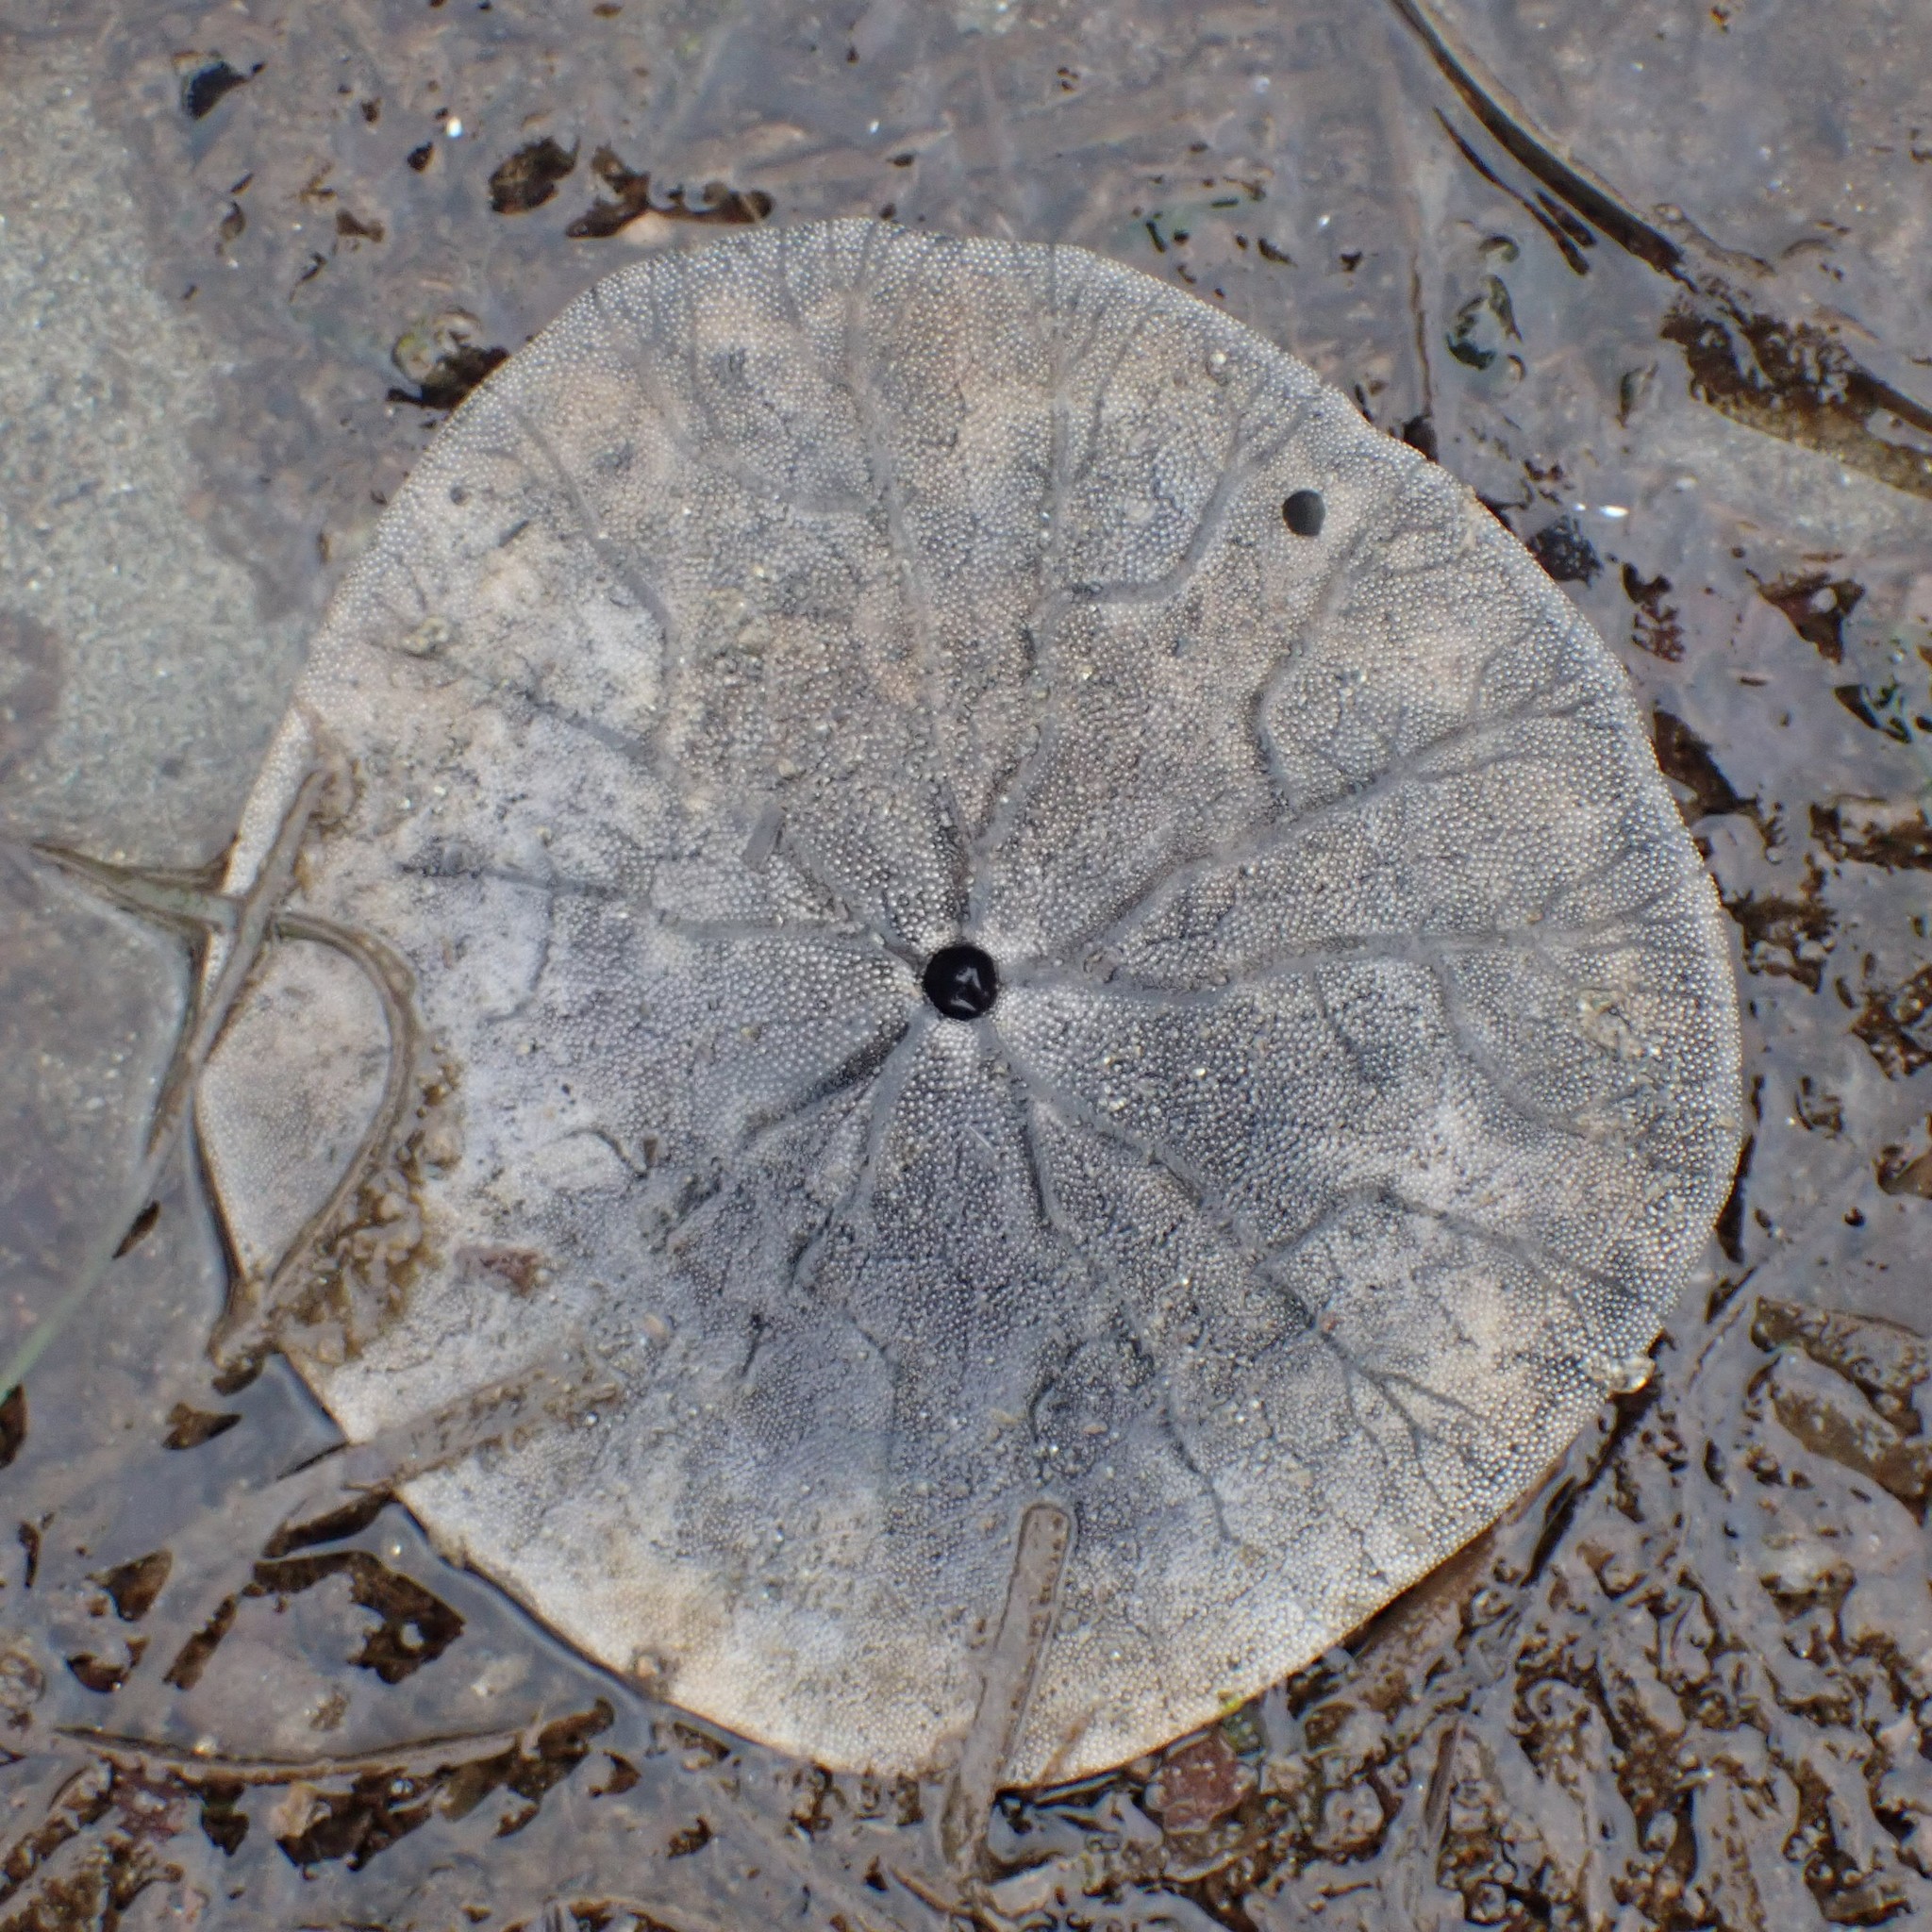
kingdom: Animalia
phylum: Echinodermata
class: Echinoidea
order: Echinolampadacea
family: Dendrasteridae
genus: Dendraster
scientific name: Dendraster excentricus
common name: Eccentric sand dollar sea urchin
